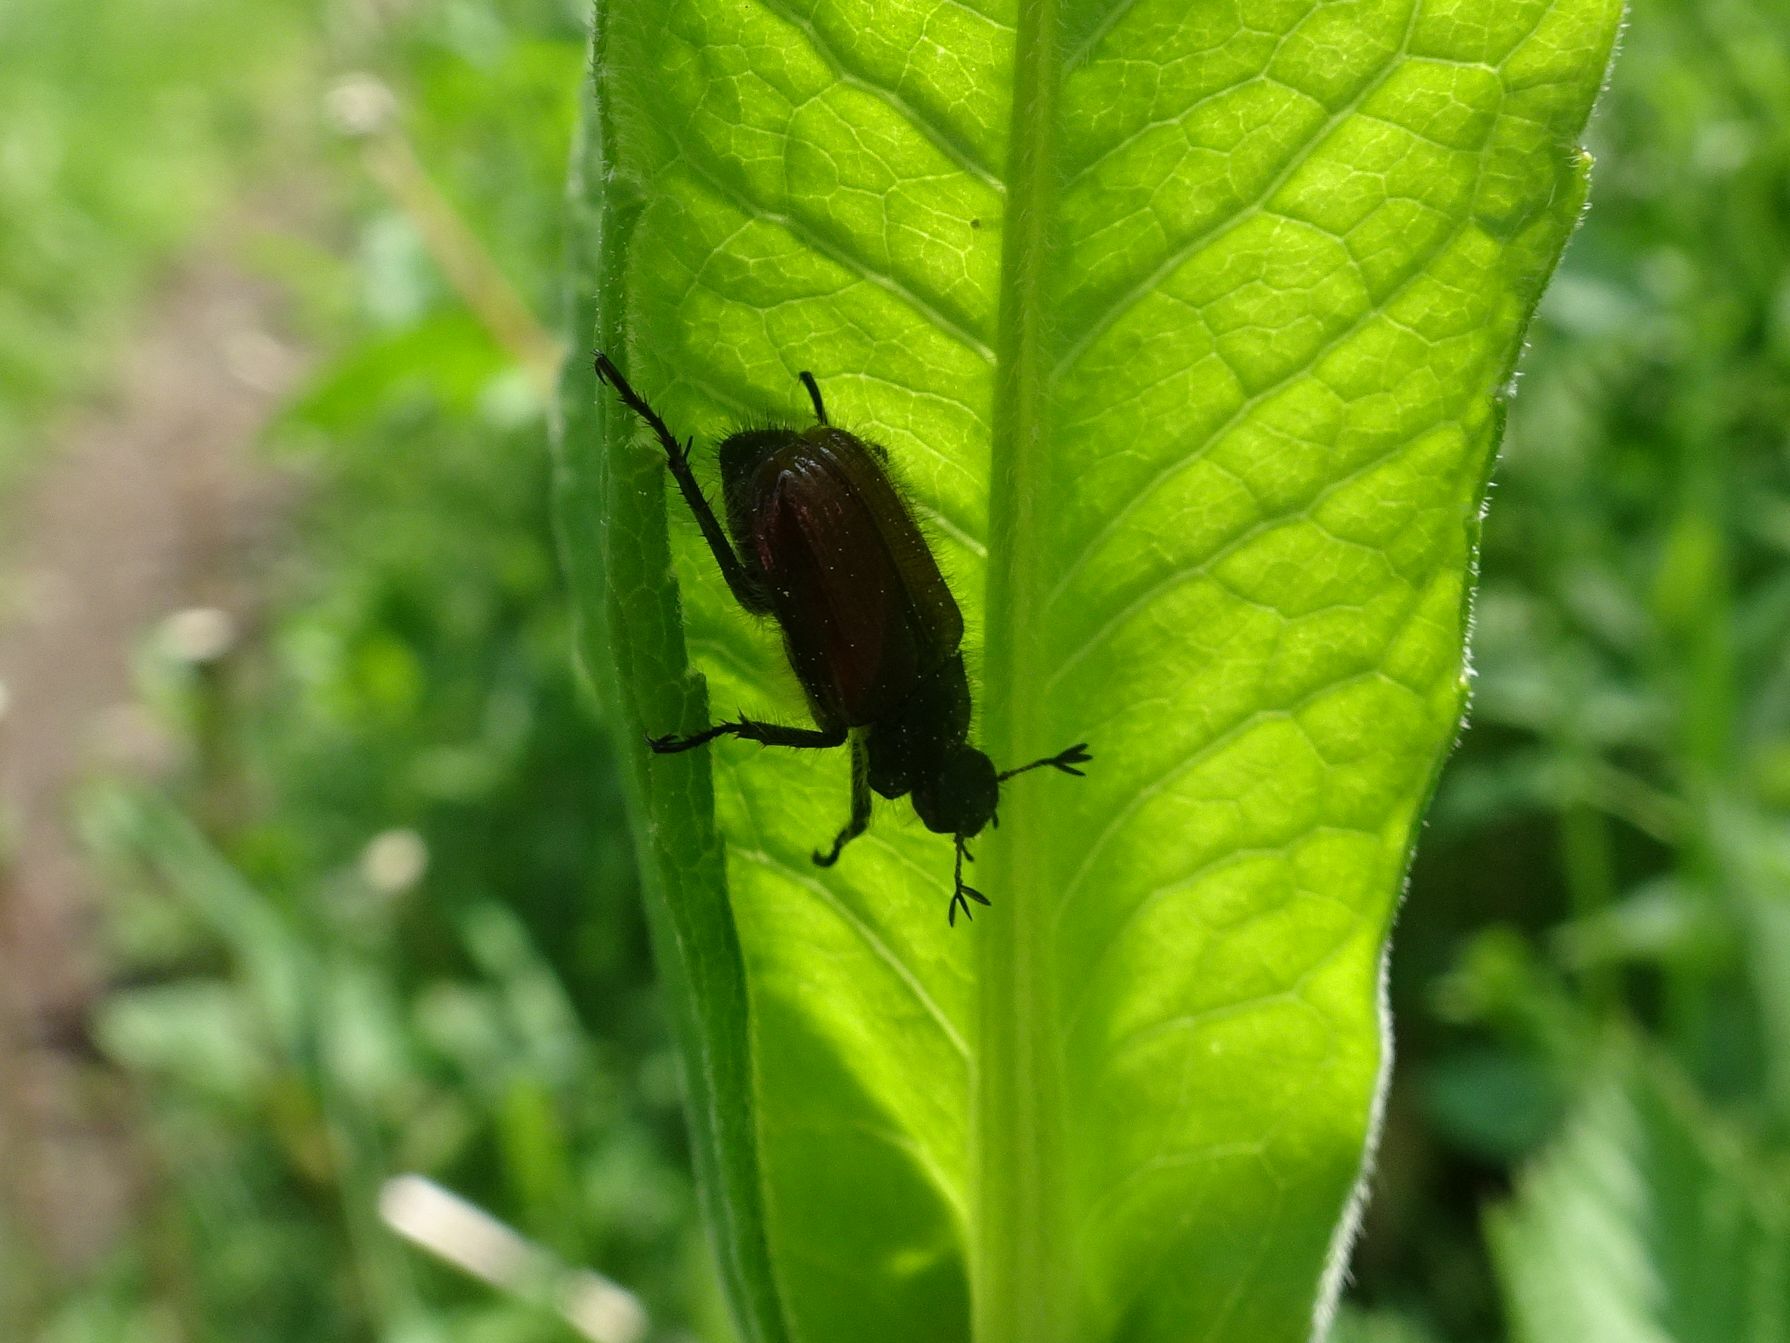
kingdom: Animalia
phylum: Arthropoda
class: Insecta
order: Coleoptera
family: Scarabaeidae
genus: Phyllopertha
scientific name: Phyllopertha horticola
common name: Garden chafer
